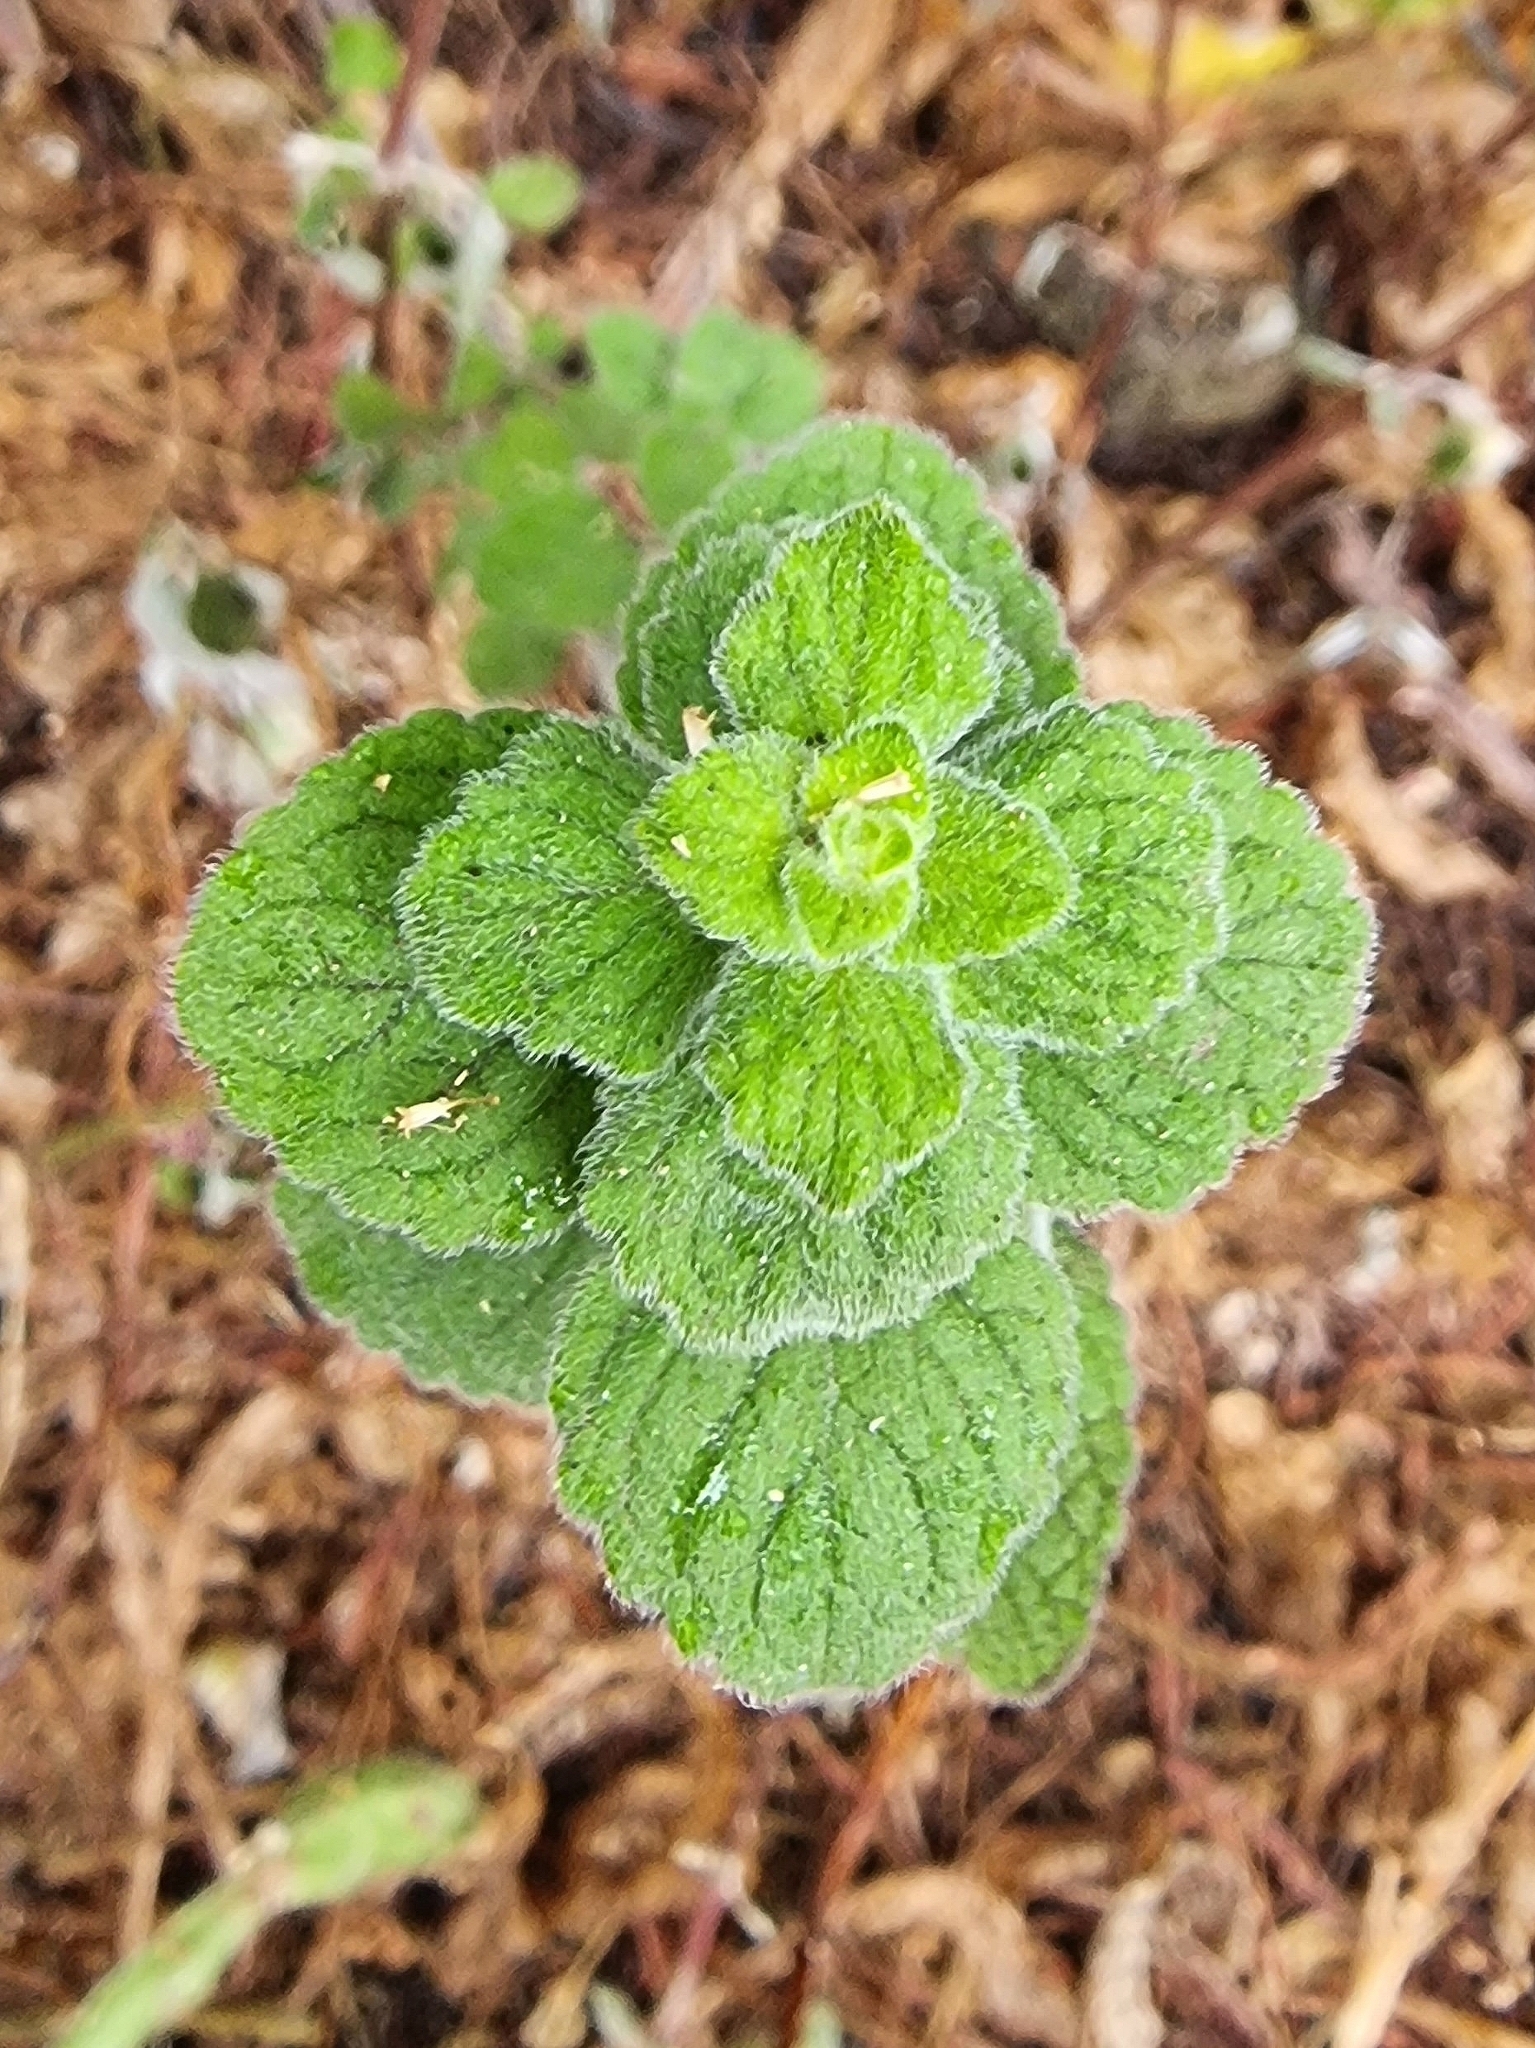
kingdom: Plantae
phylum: Tracheophyta
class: Magnoliopsida
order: Lamiales
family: Lamiaceae
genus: Clinopodium
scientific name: Clinopodium menthifolium
